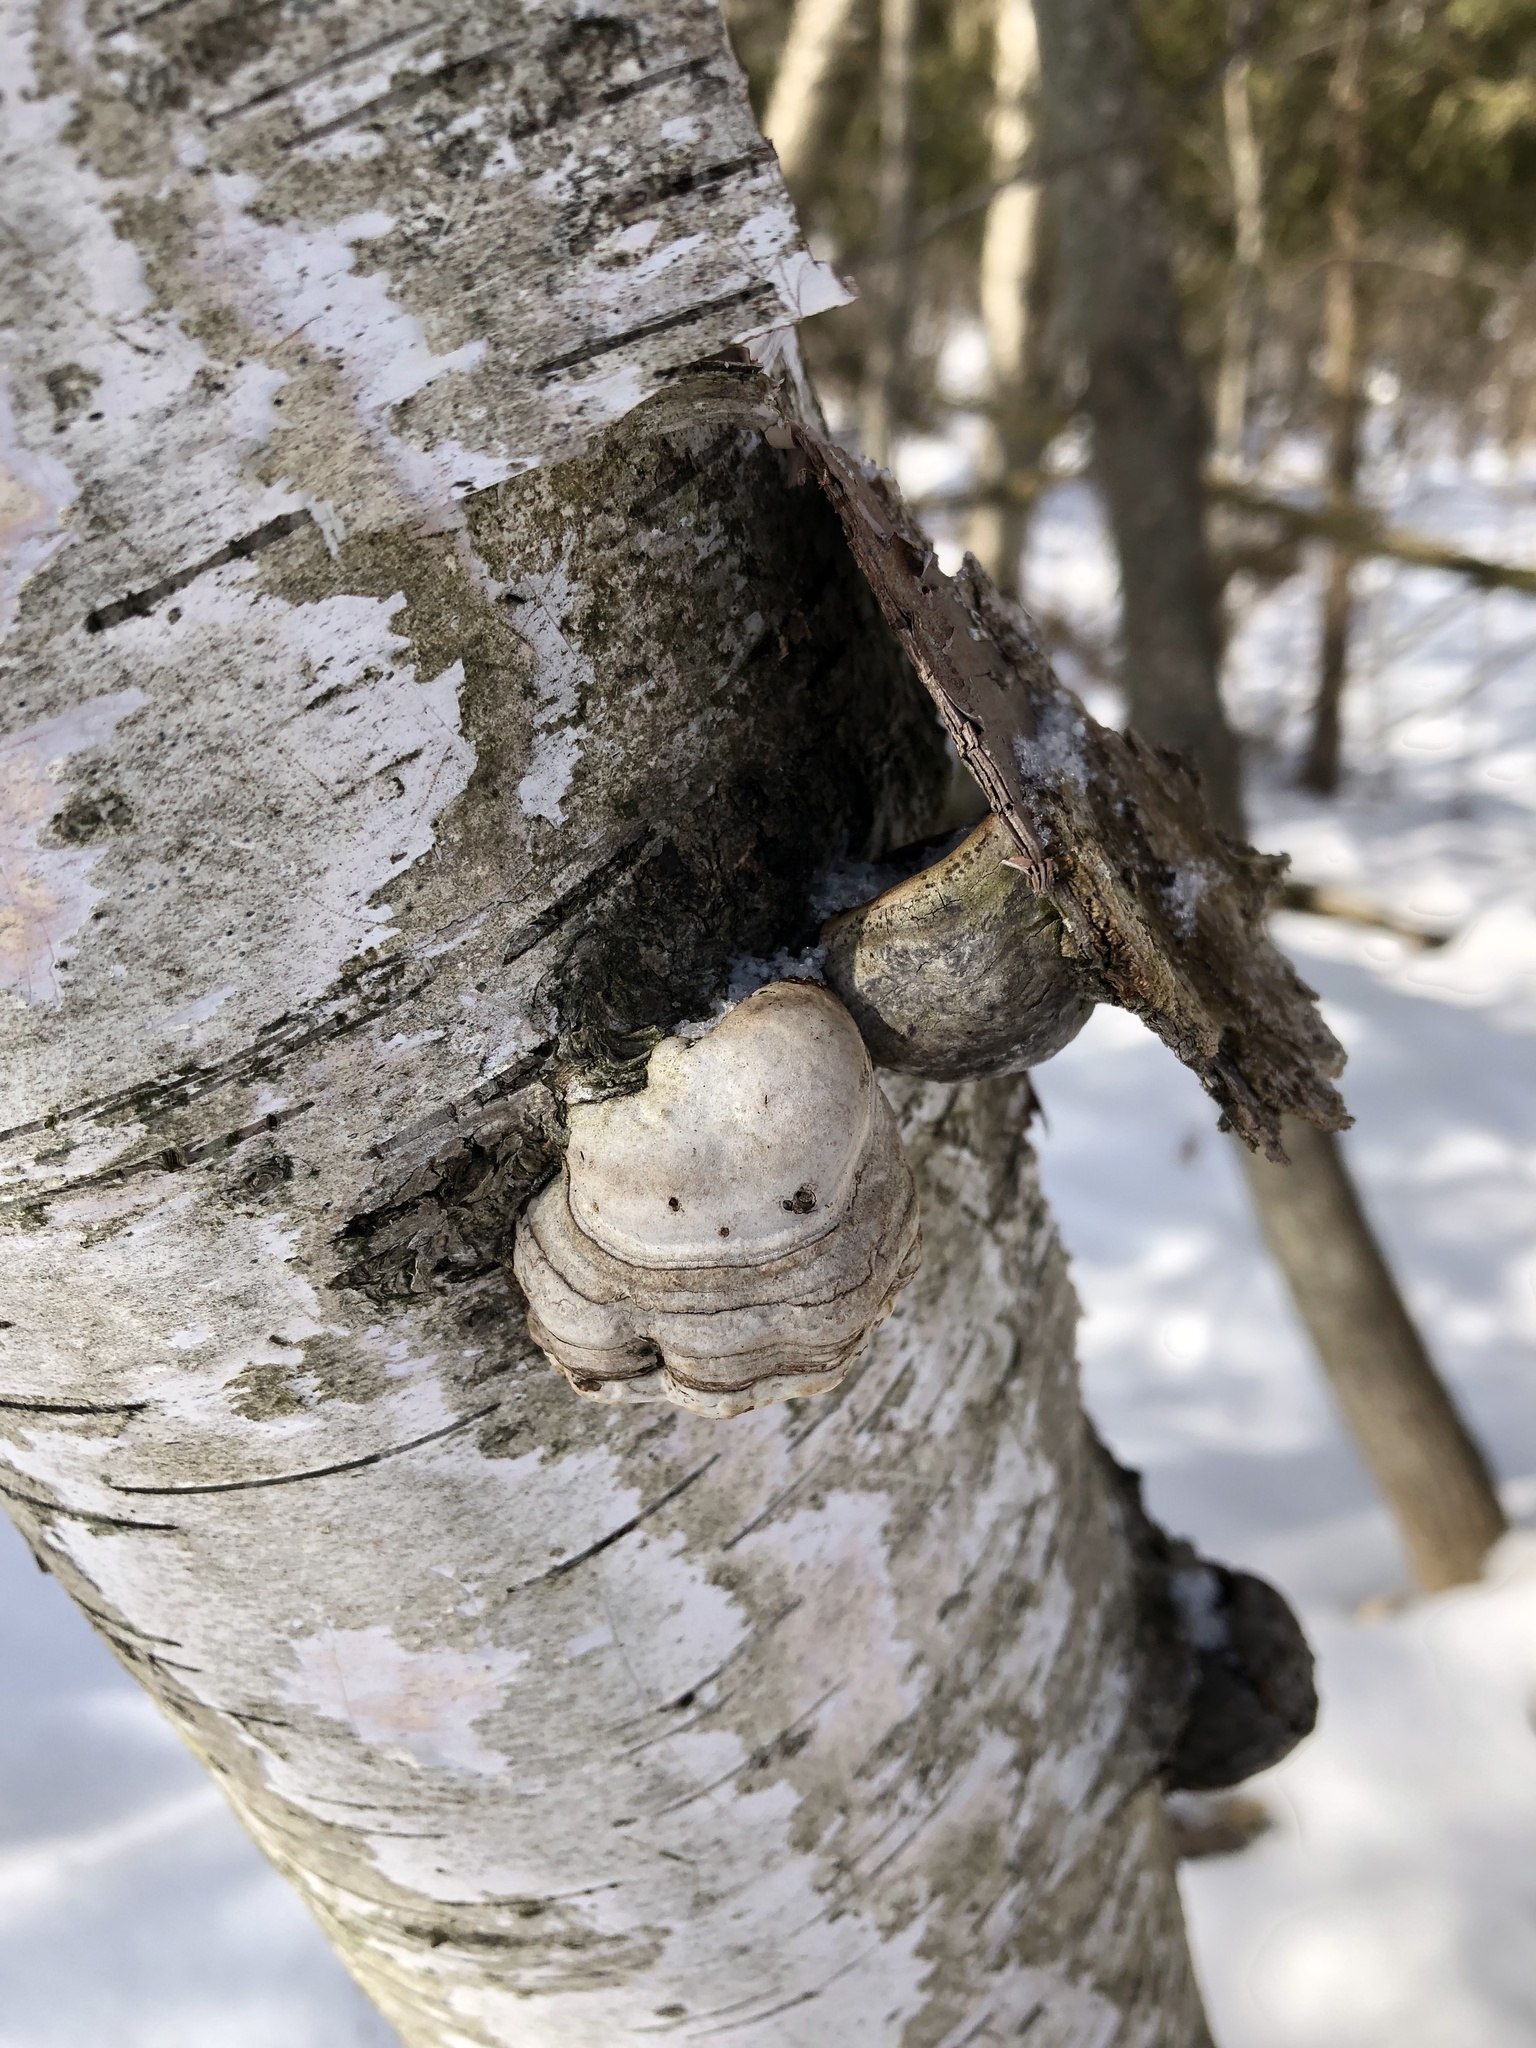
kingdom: Fungi
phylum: Basidiomycota
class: Agaricomycetes
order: Polyporales
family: Polyporaceae
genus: Fomes
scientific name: Fomes fomentarius
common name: Hoof fungus
